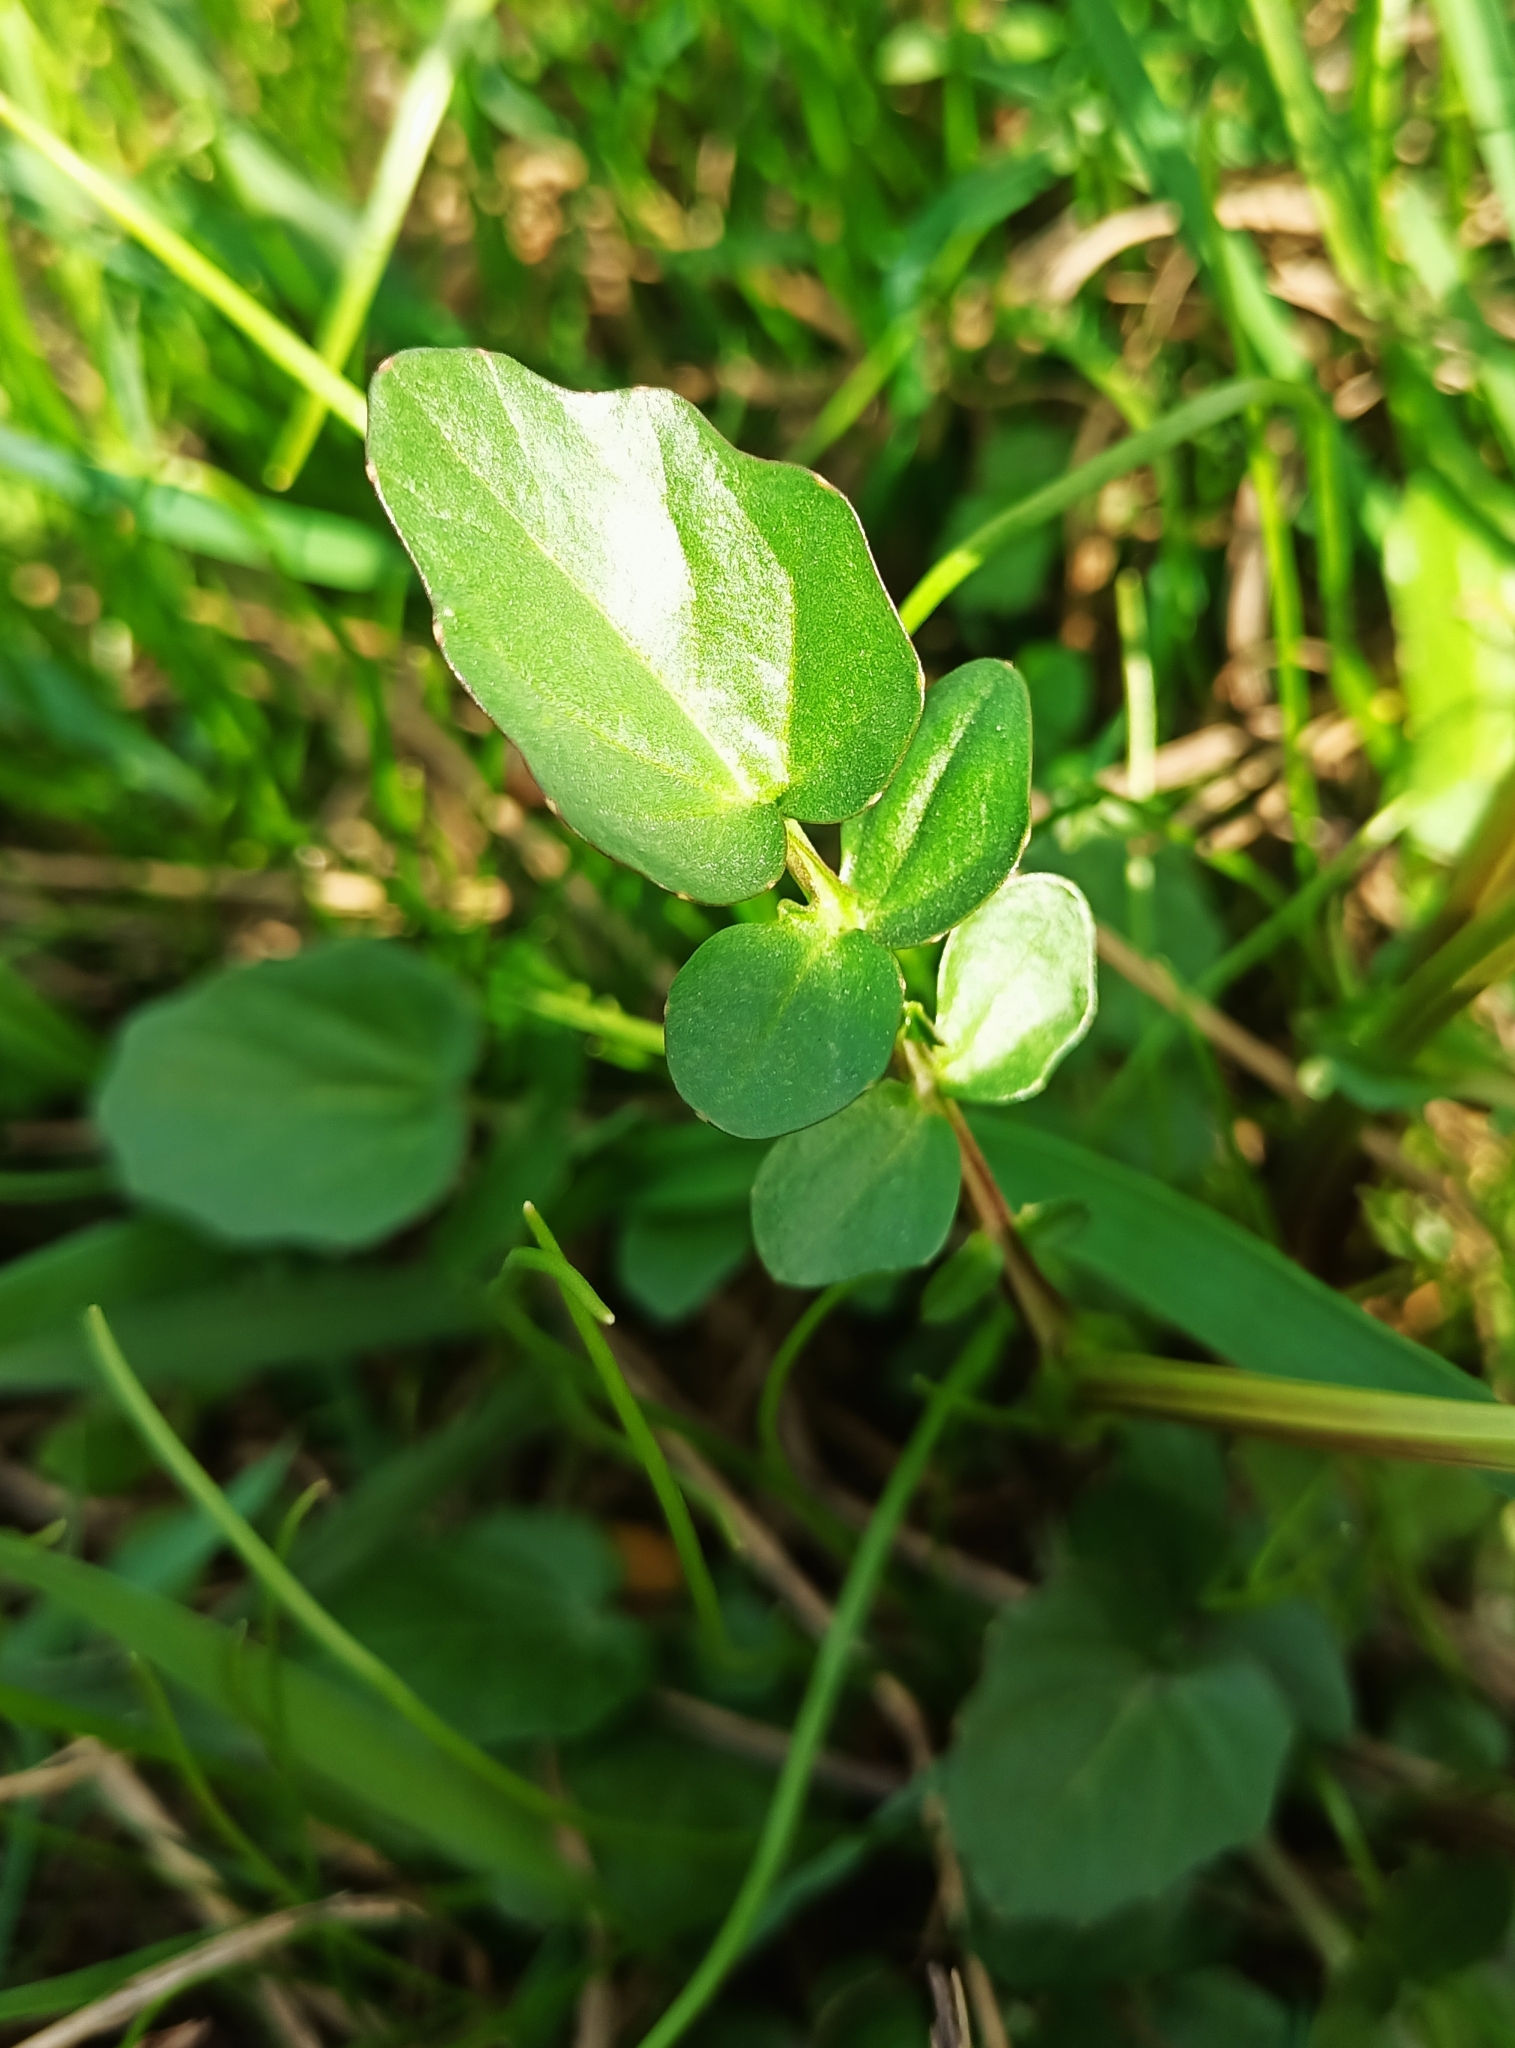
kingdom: Plantae
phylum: Tracheophyta
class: Magnoliopsida
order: Brassicales
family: Brassicaceae
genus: Barbarea
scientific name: Barbarea vulgaris
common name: Cressy-greens
